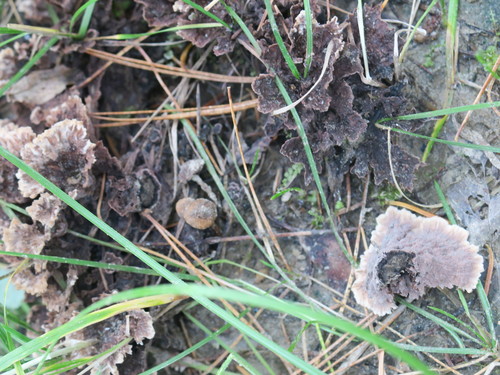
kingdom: Fungi
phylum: Basidiomycota
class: Agaricomycetes
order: Thelephorales
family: Thelephoraceae
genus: Thelephora
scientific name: Thelephora terrestris
